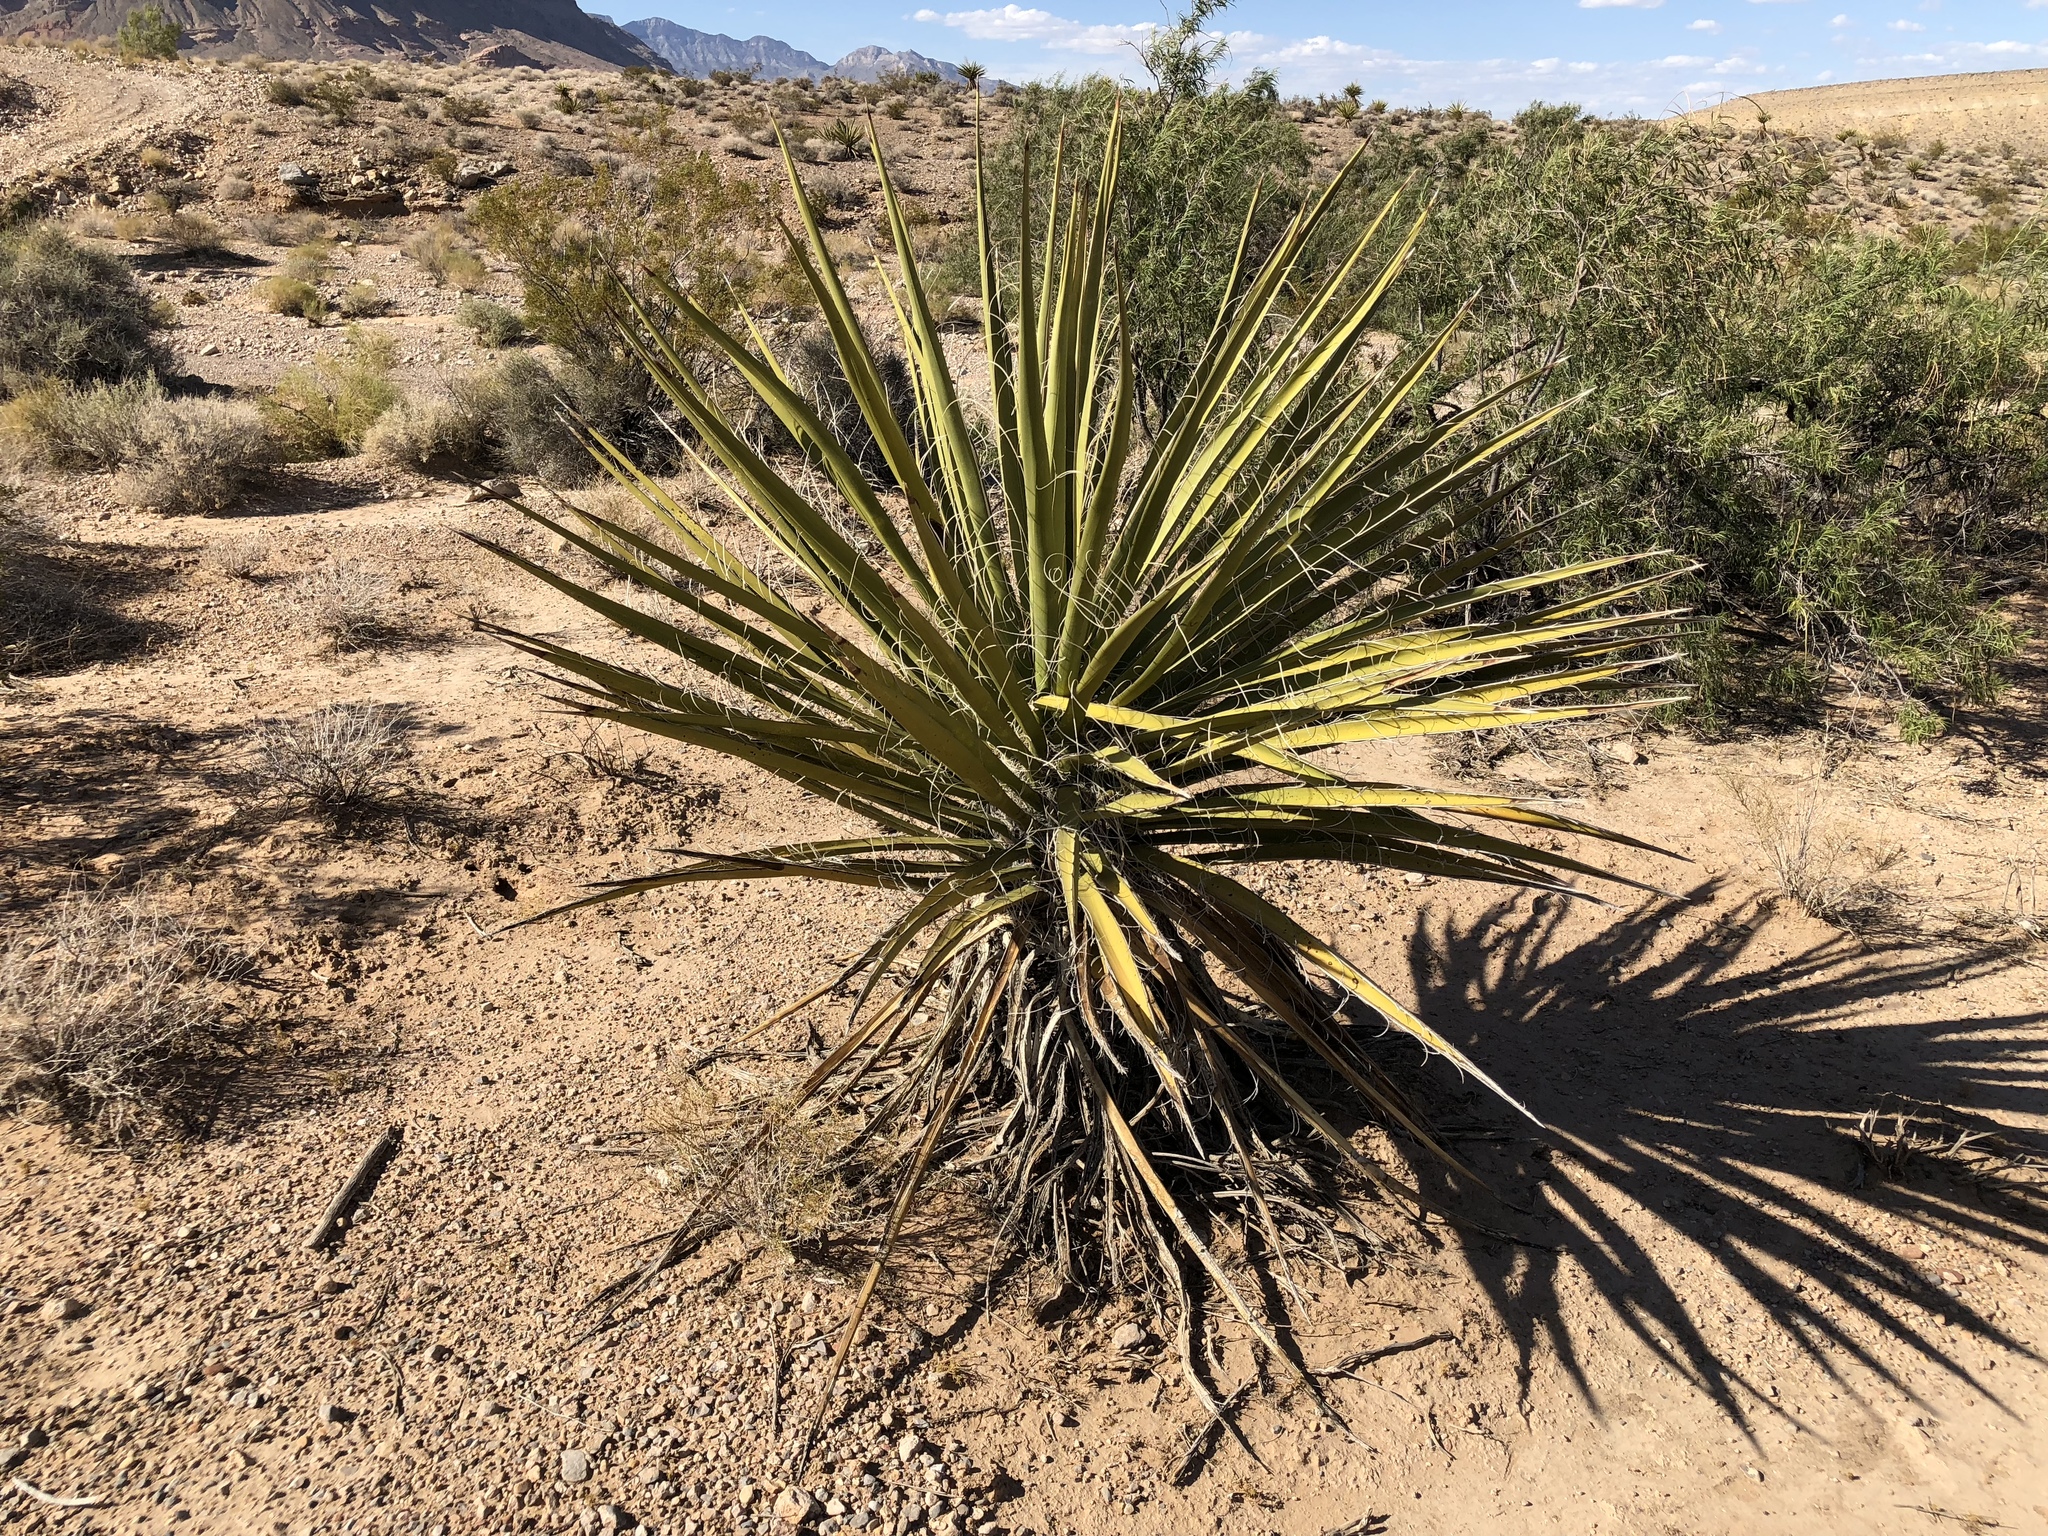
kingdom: Plantae
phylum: Tracheophyta
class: Liliopsida
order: Asparagales
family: Asparagaceae
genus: Yucca
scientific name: Yucca schidigera
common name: Mojave yucca
